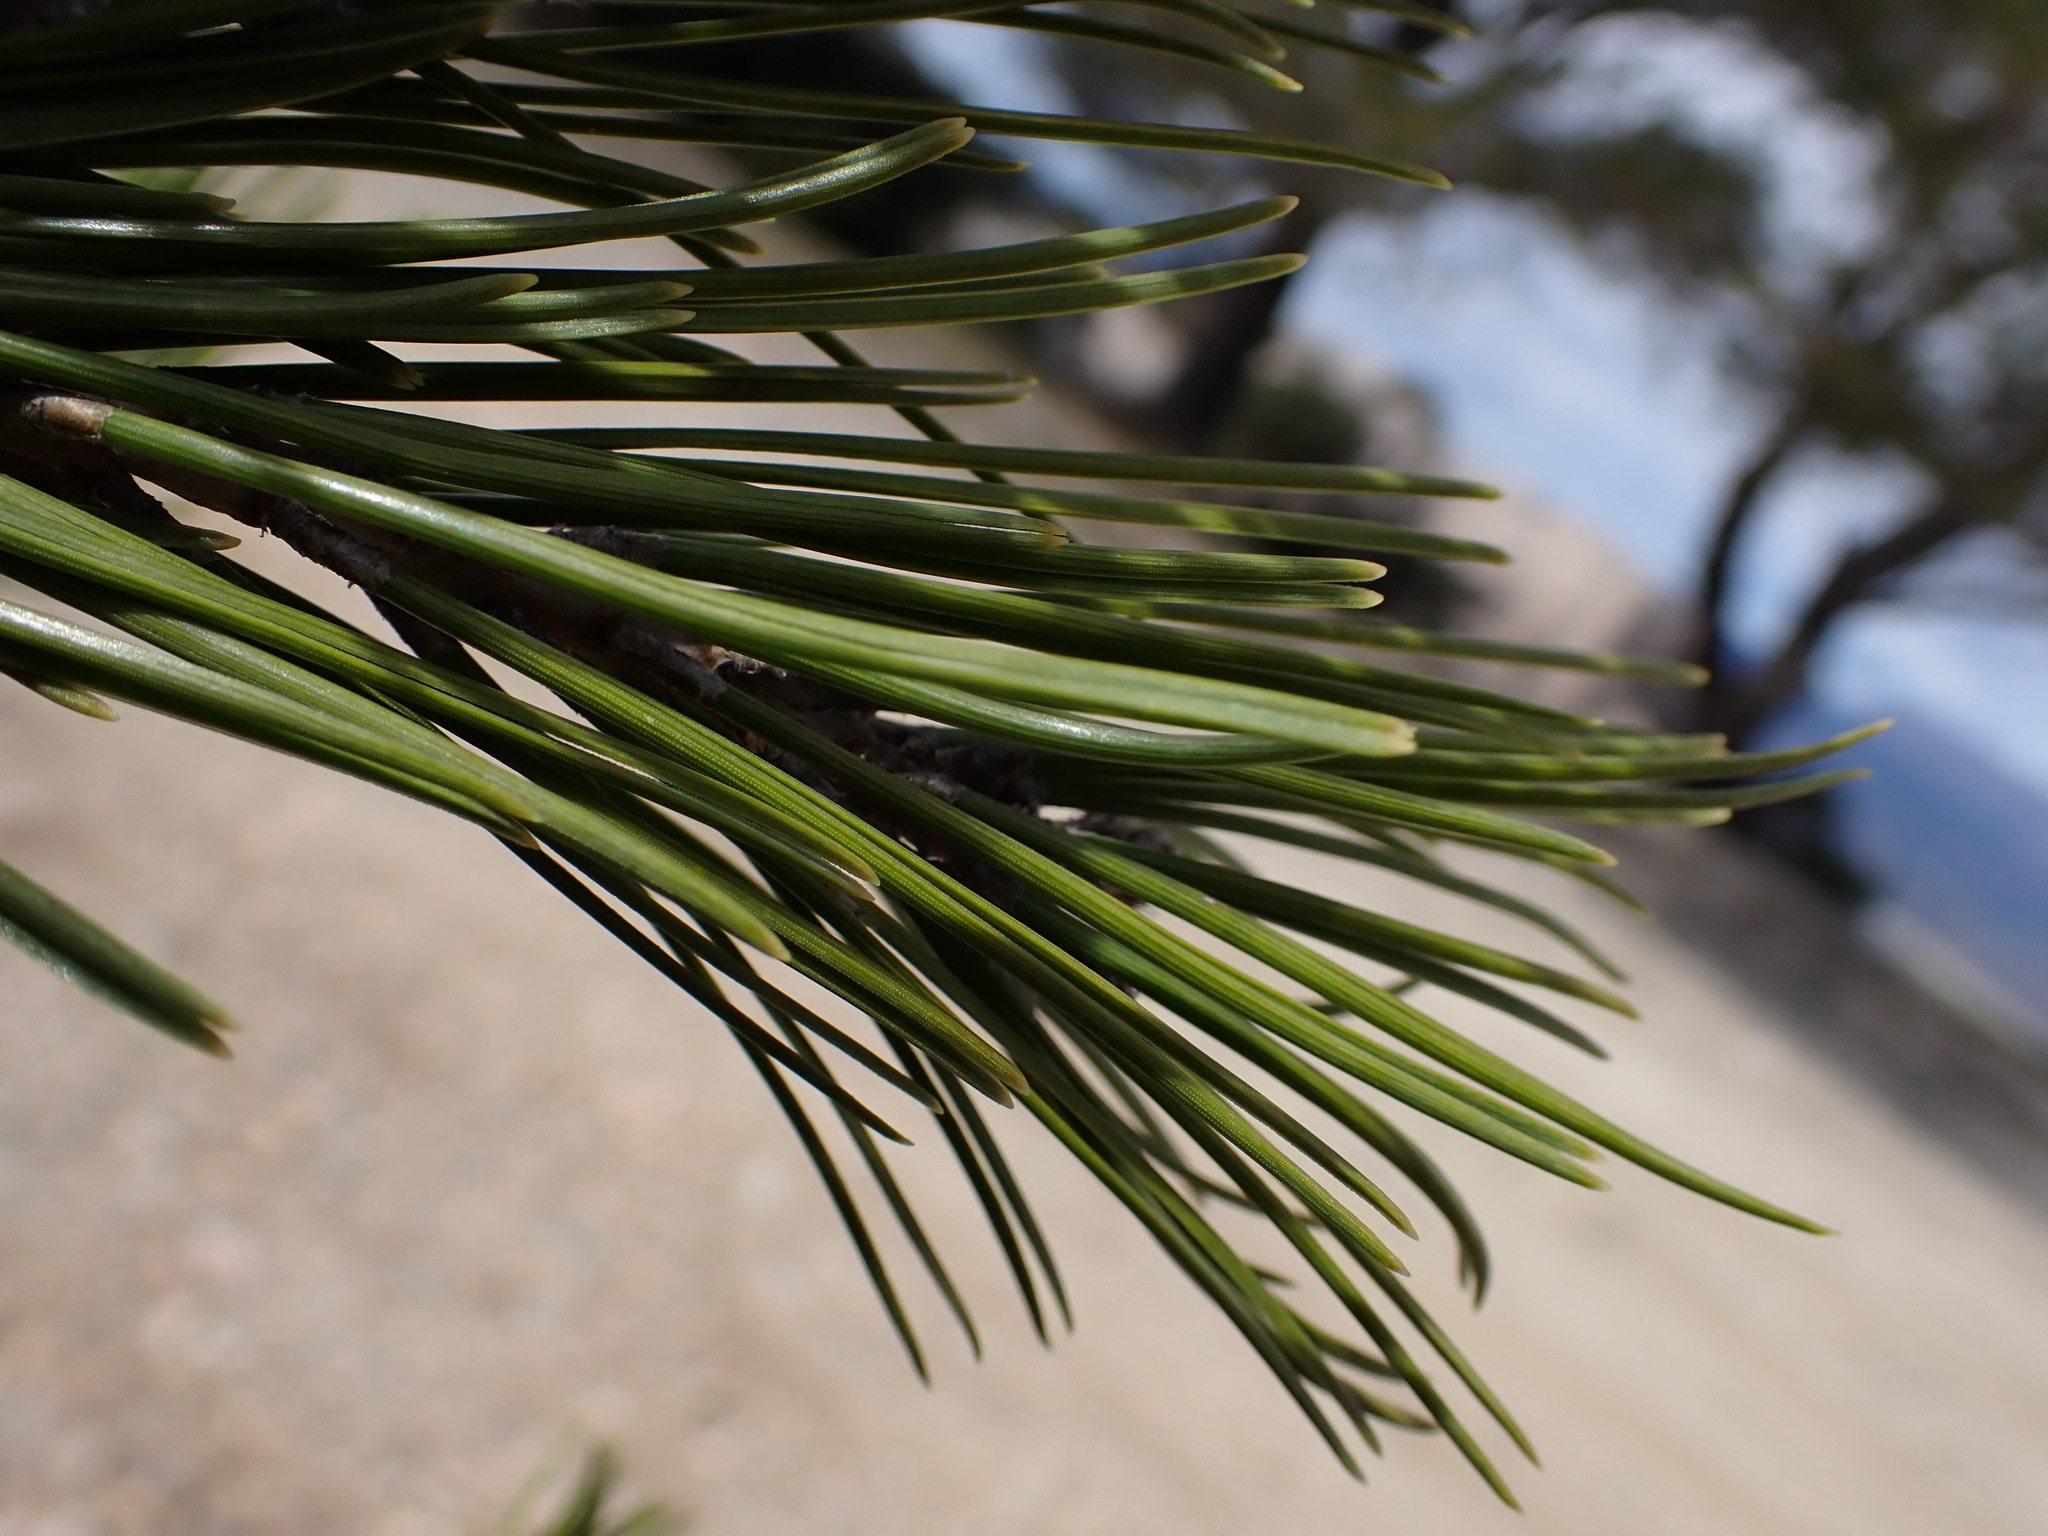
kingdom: Plantae
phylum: Tracheophyta
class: Pinopsida
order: Pinales
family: Pinaceae
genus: Pinus
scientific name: Pinus halepensis
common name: Aleppo pine
